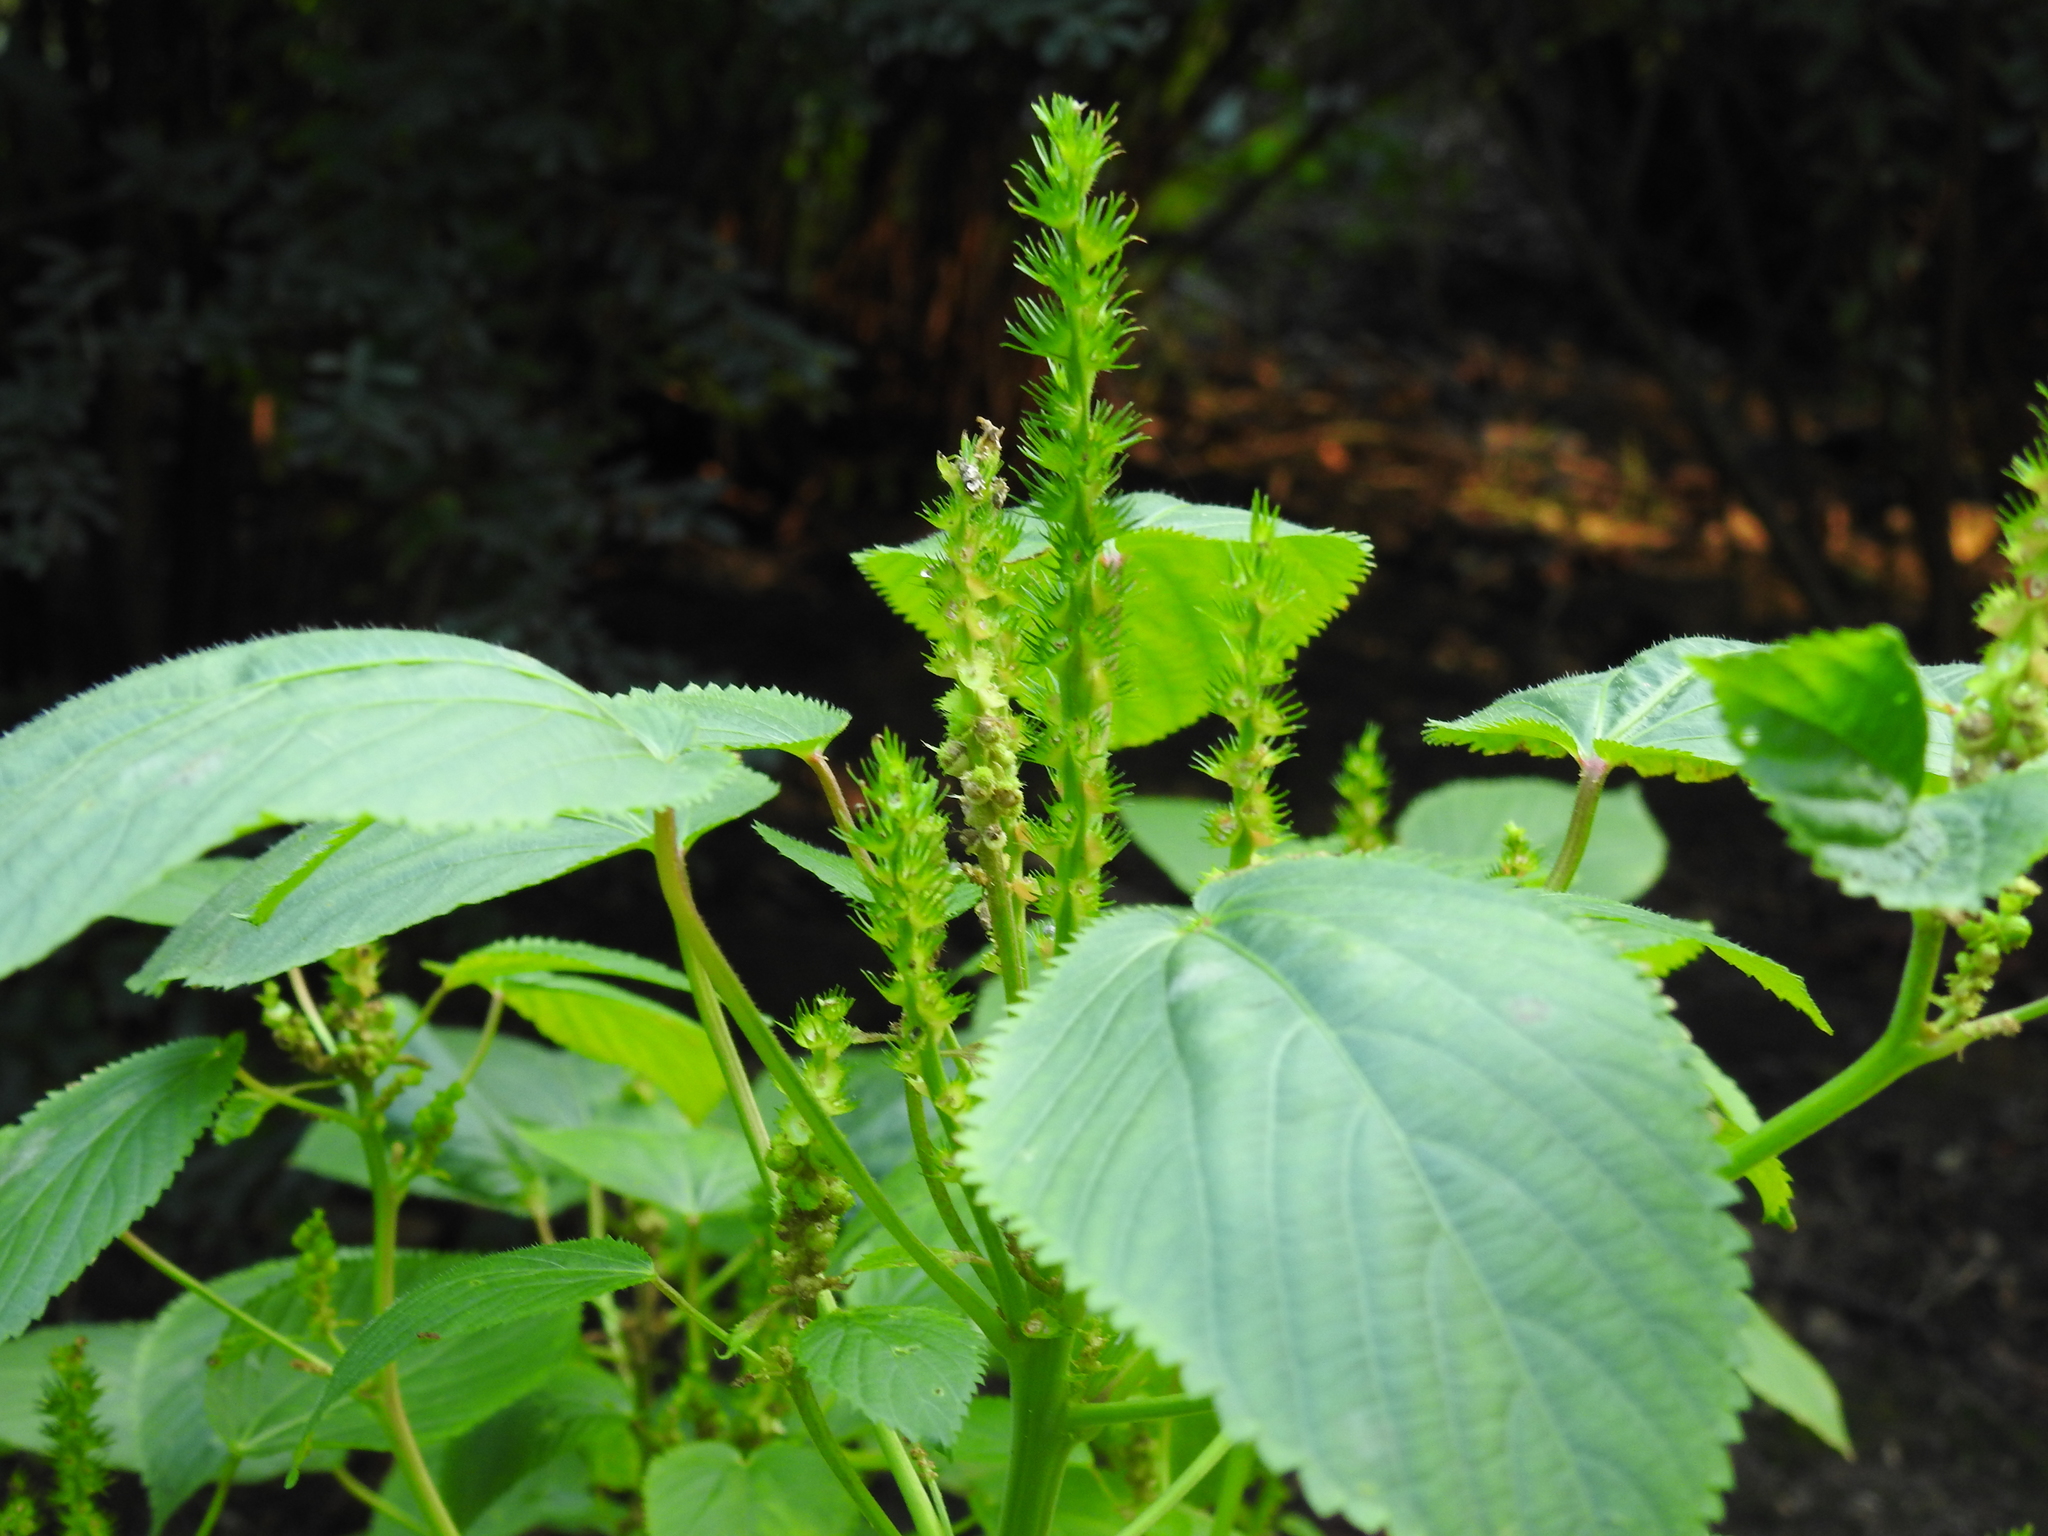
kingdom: Plantae
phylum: Tracheophyta
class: Magnoliopsida
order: Malpighiales
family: Euphorbiaceae
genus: Acalypha
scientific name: Acalypha ostryifolia
